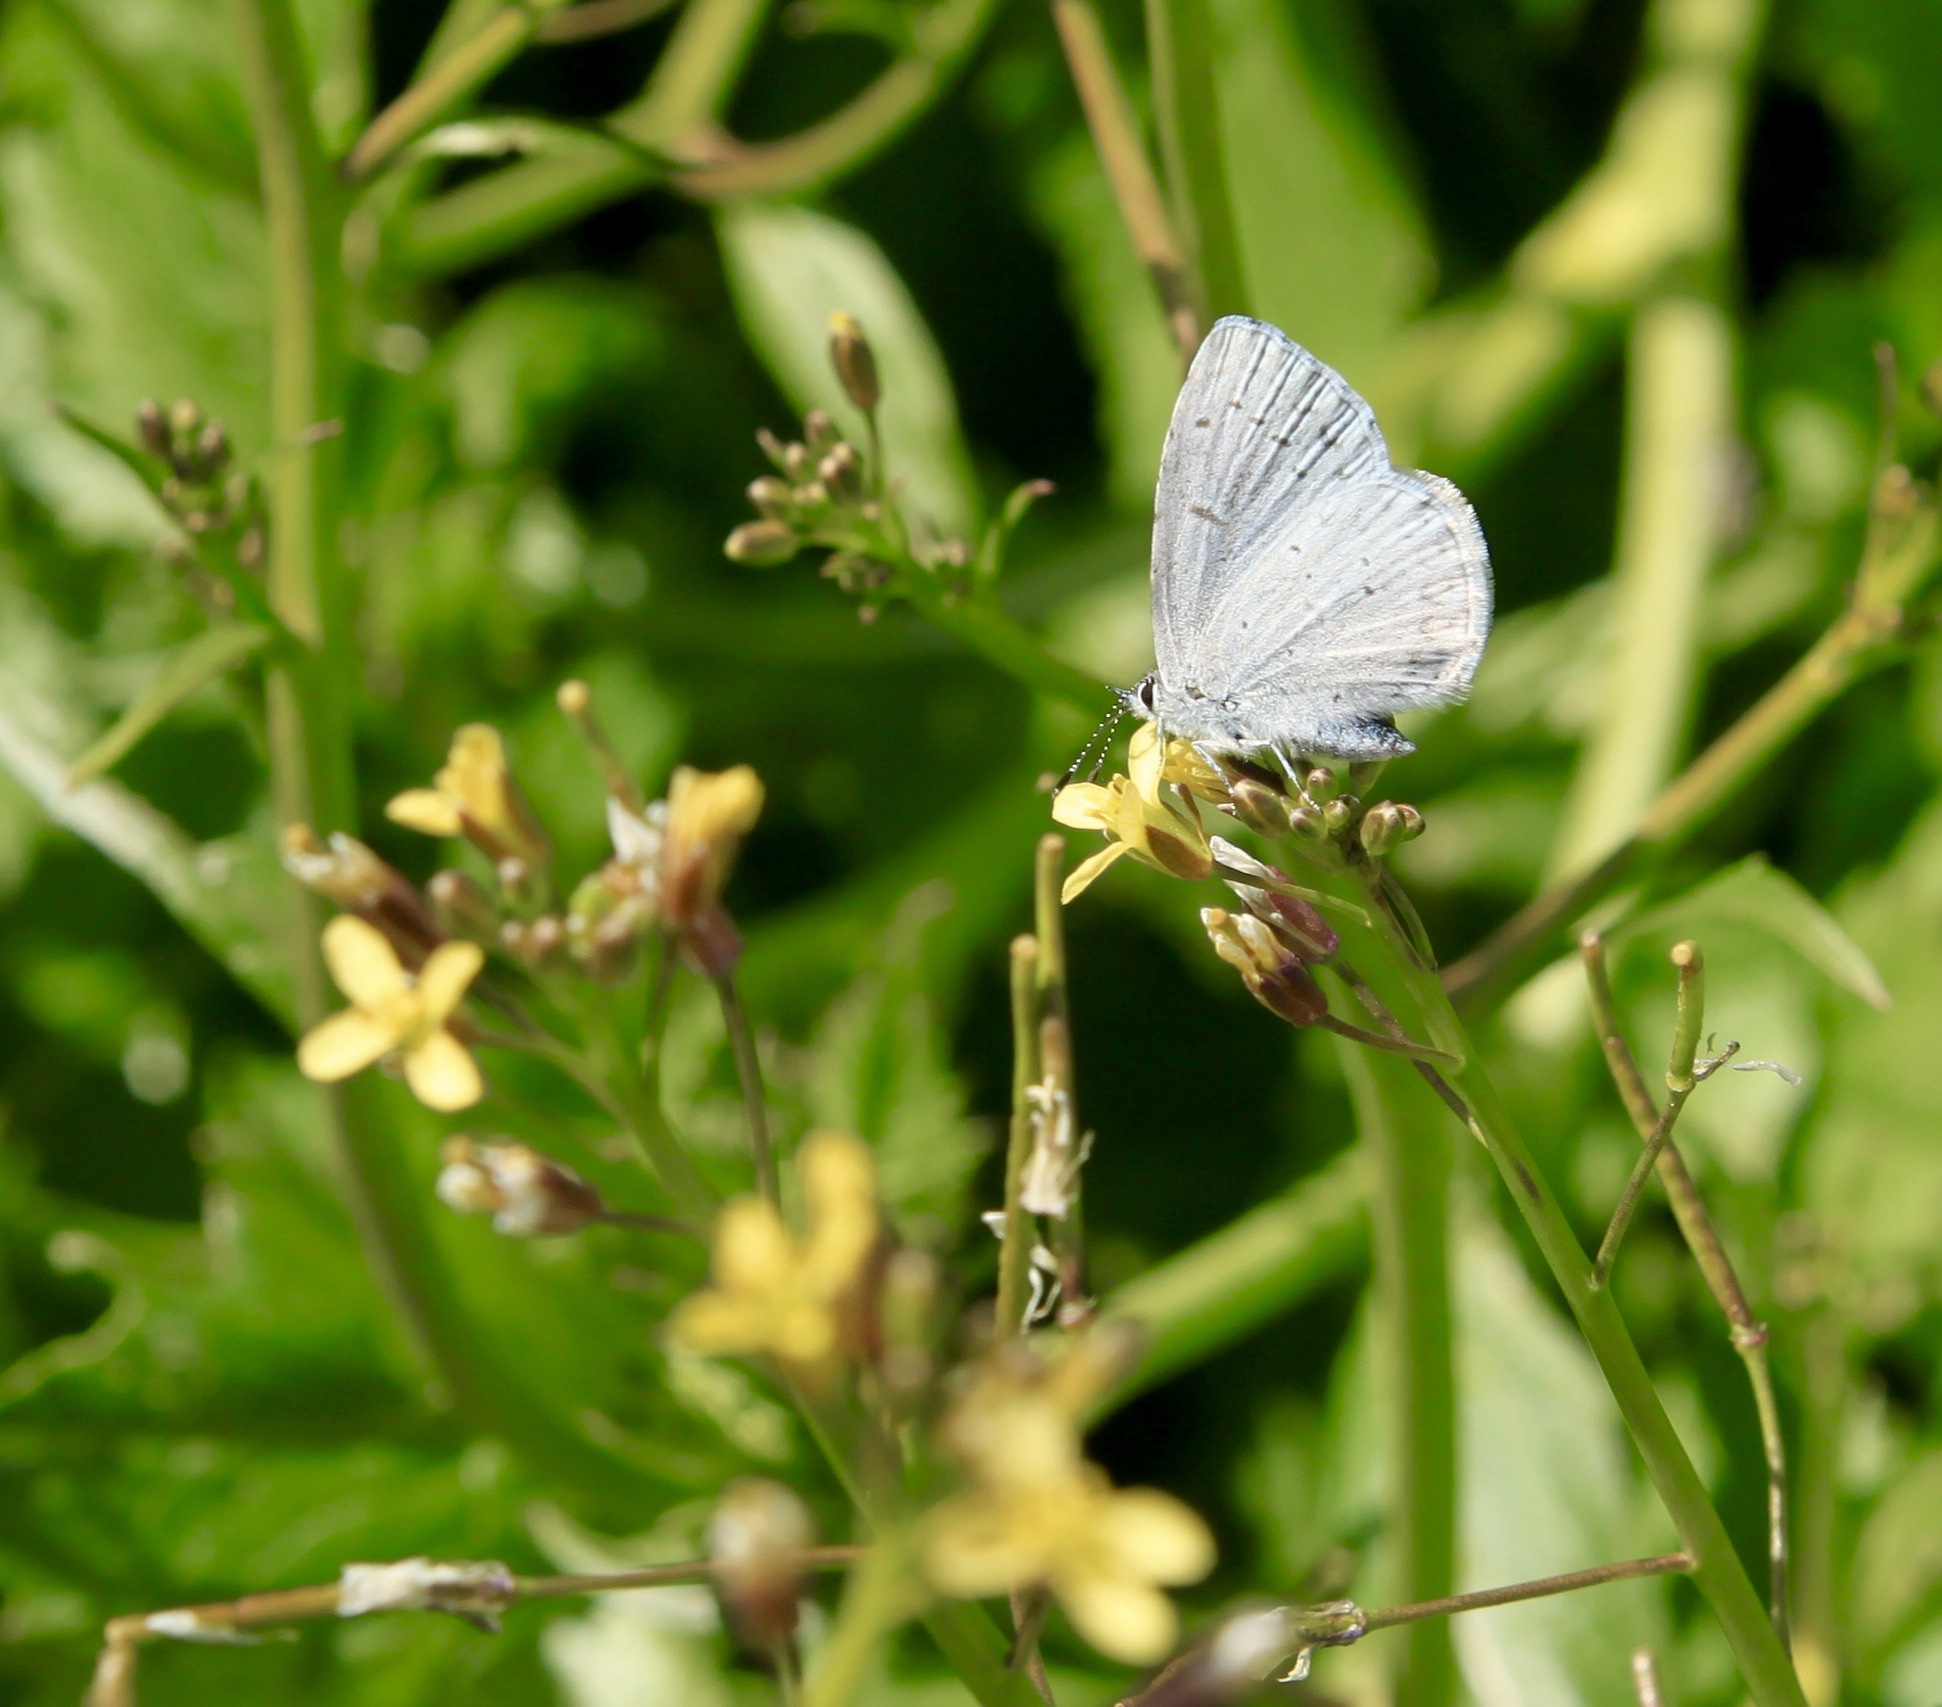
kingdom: Animalia
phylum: Arthropoda
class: Insecta
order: Lepidoptera
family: Lycaenidae
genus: Celastrina
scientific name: Celastrina ladon
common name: Spring azure
